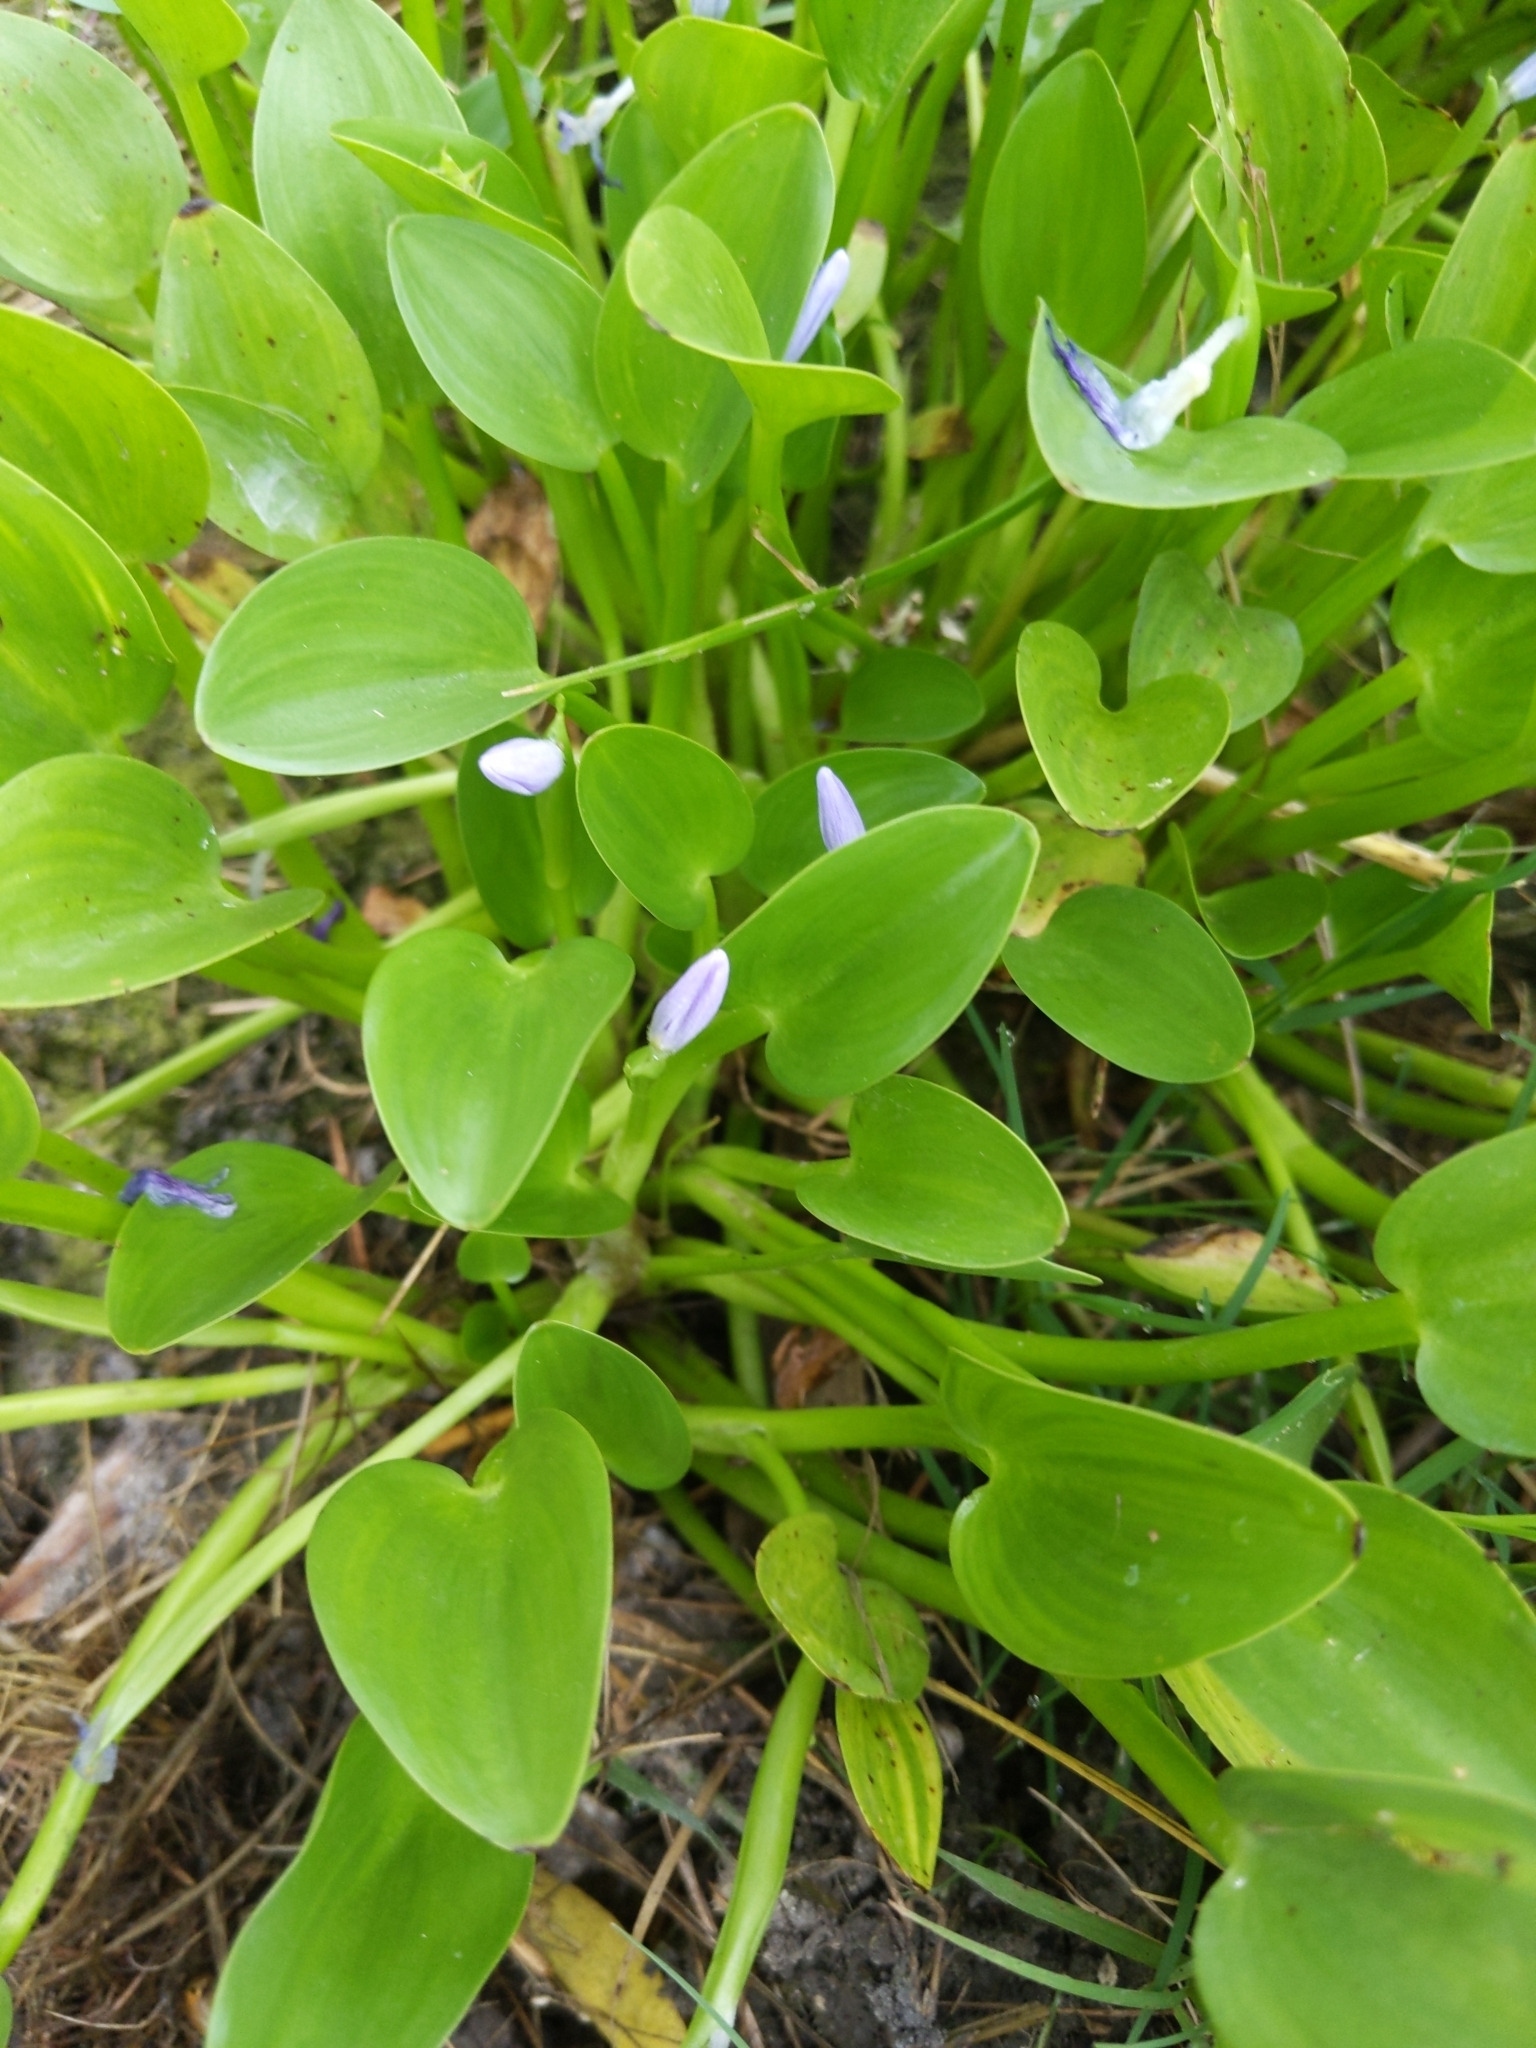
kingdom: Plantae
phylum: Tracheophyta
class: Liliopsida
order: Commelinales
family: Pontederiaceae
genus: Heteranthera
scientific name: Heteranthera limosa
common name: Blue mud-plantain
